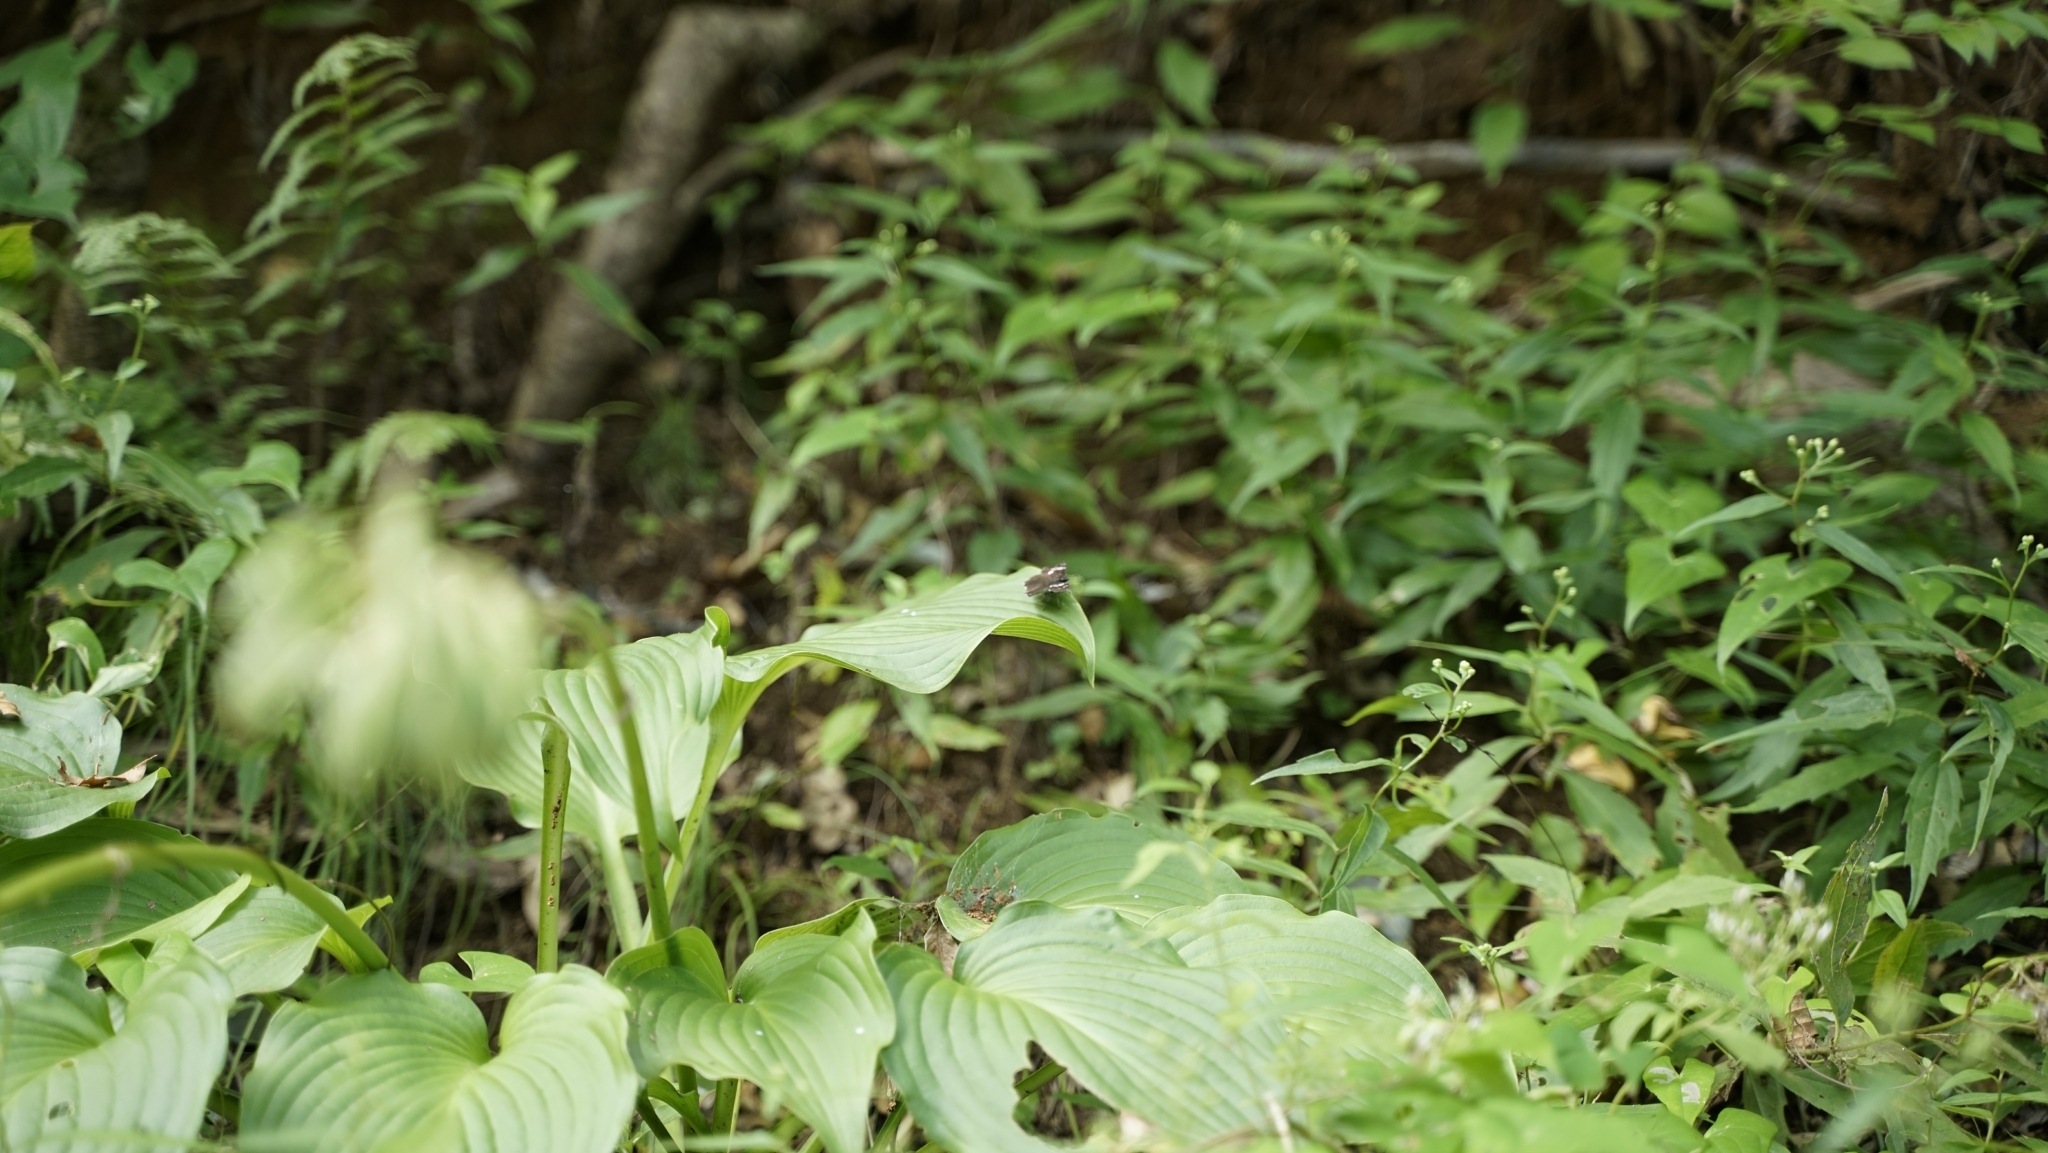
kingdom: Animalia
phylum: Arthropoda
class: Insecta
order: Lepidoptera
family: Hesperiidae
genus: Daimio
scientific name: Daimio tethys
